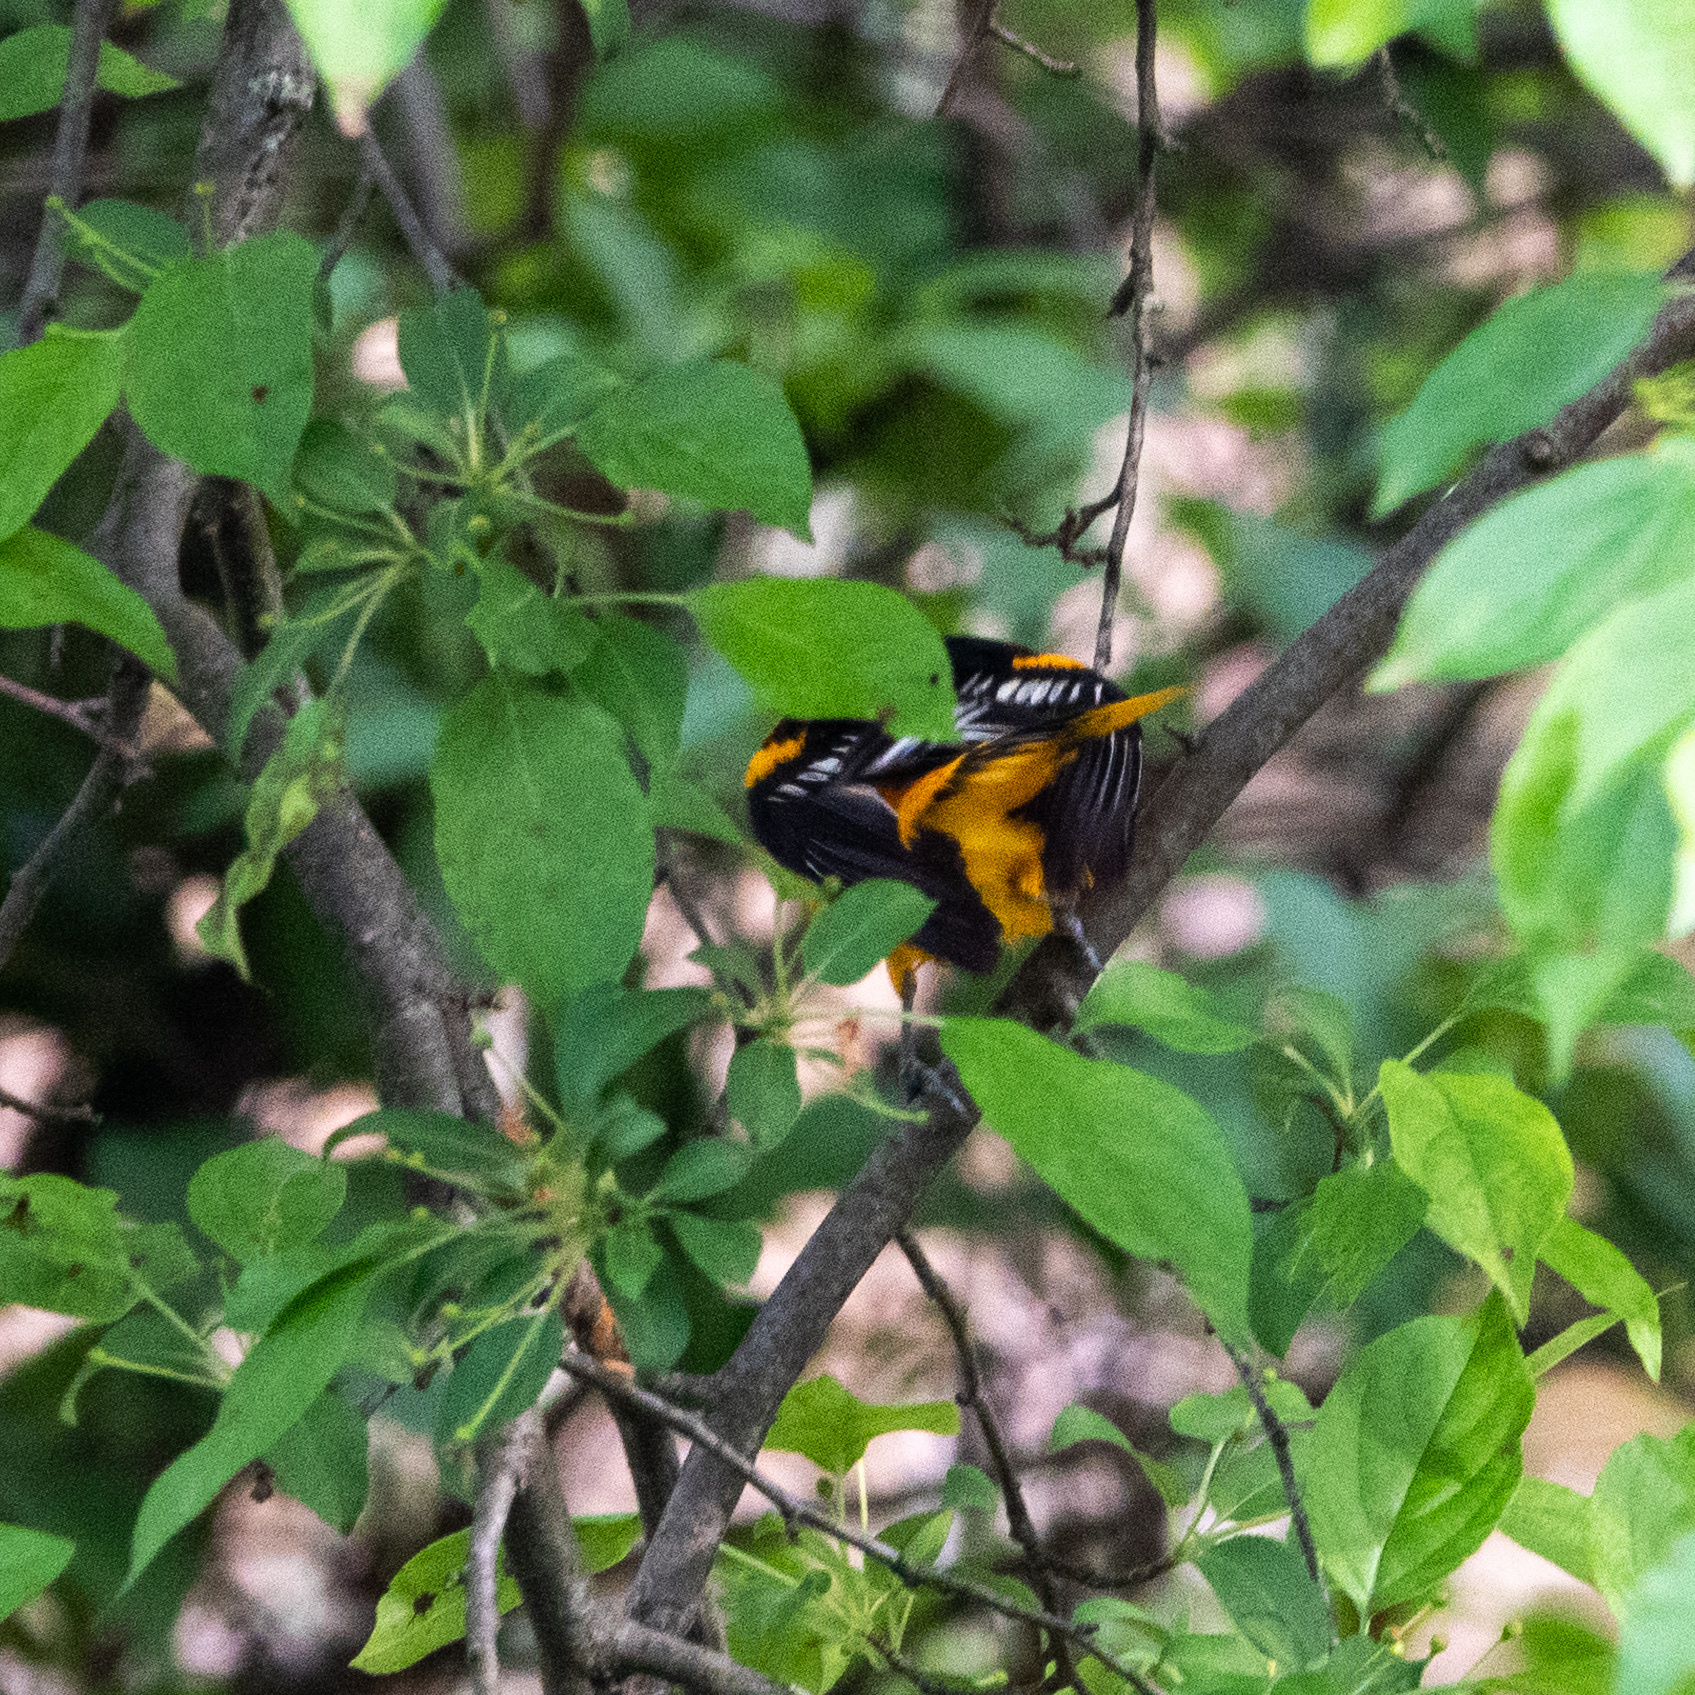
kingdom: Animalia
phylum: Chordata
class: Aves
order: Passeriformes
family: Icteridae
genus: Icterus
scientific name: Icterus galbula
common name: Baltimore oriole
